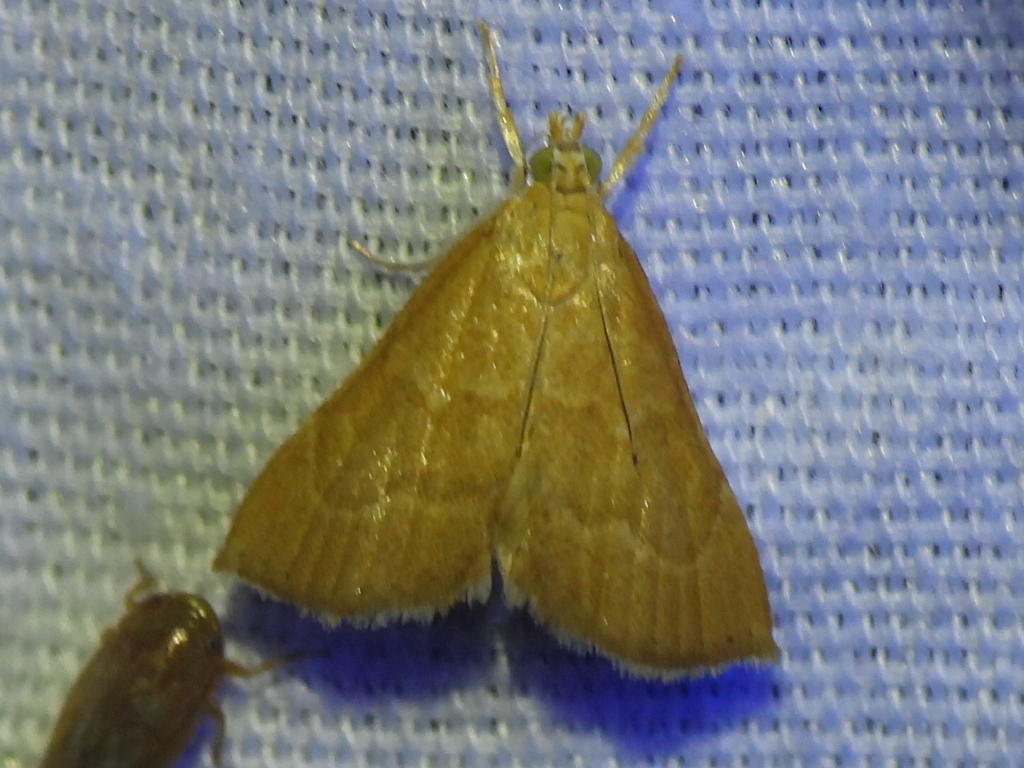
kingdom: Animalia
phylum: Arthropoda
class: Insecta
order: Lepidoptera
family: Crambidae
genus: Glaphyria
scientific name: Glaphyria invisalis
